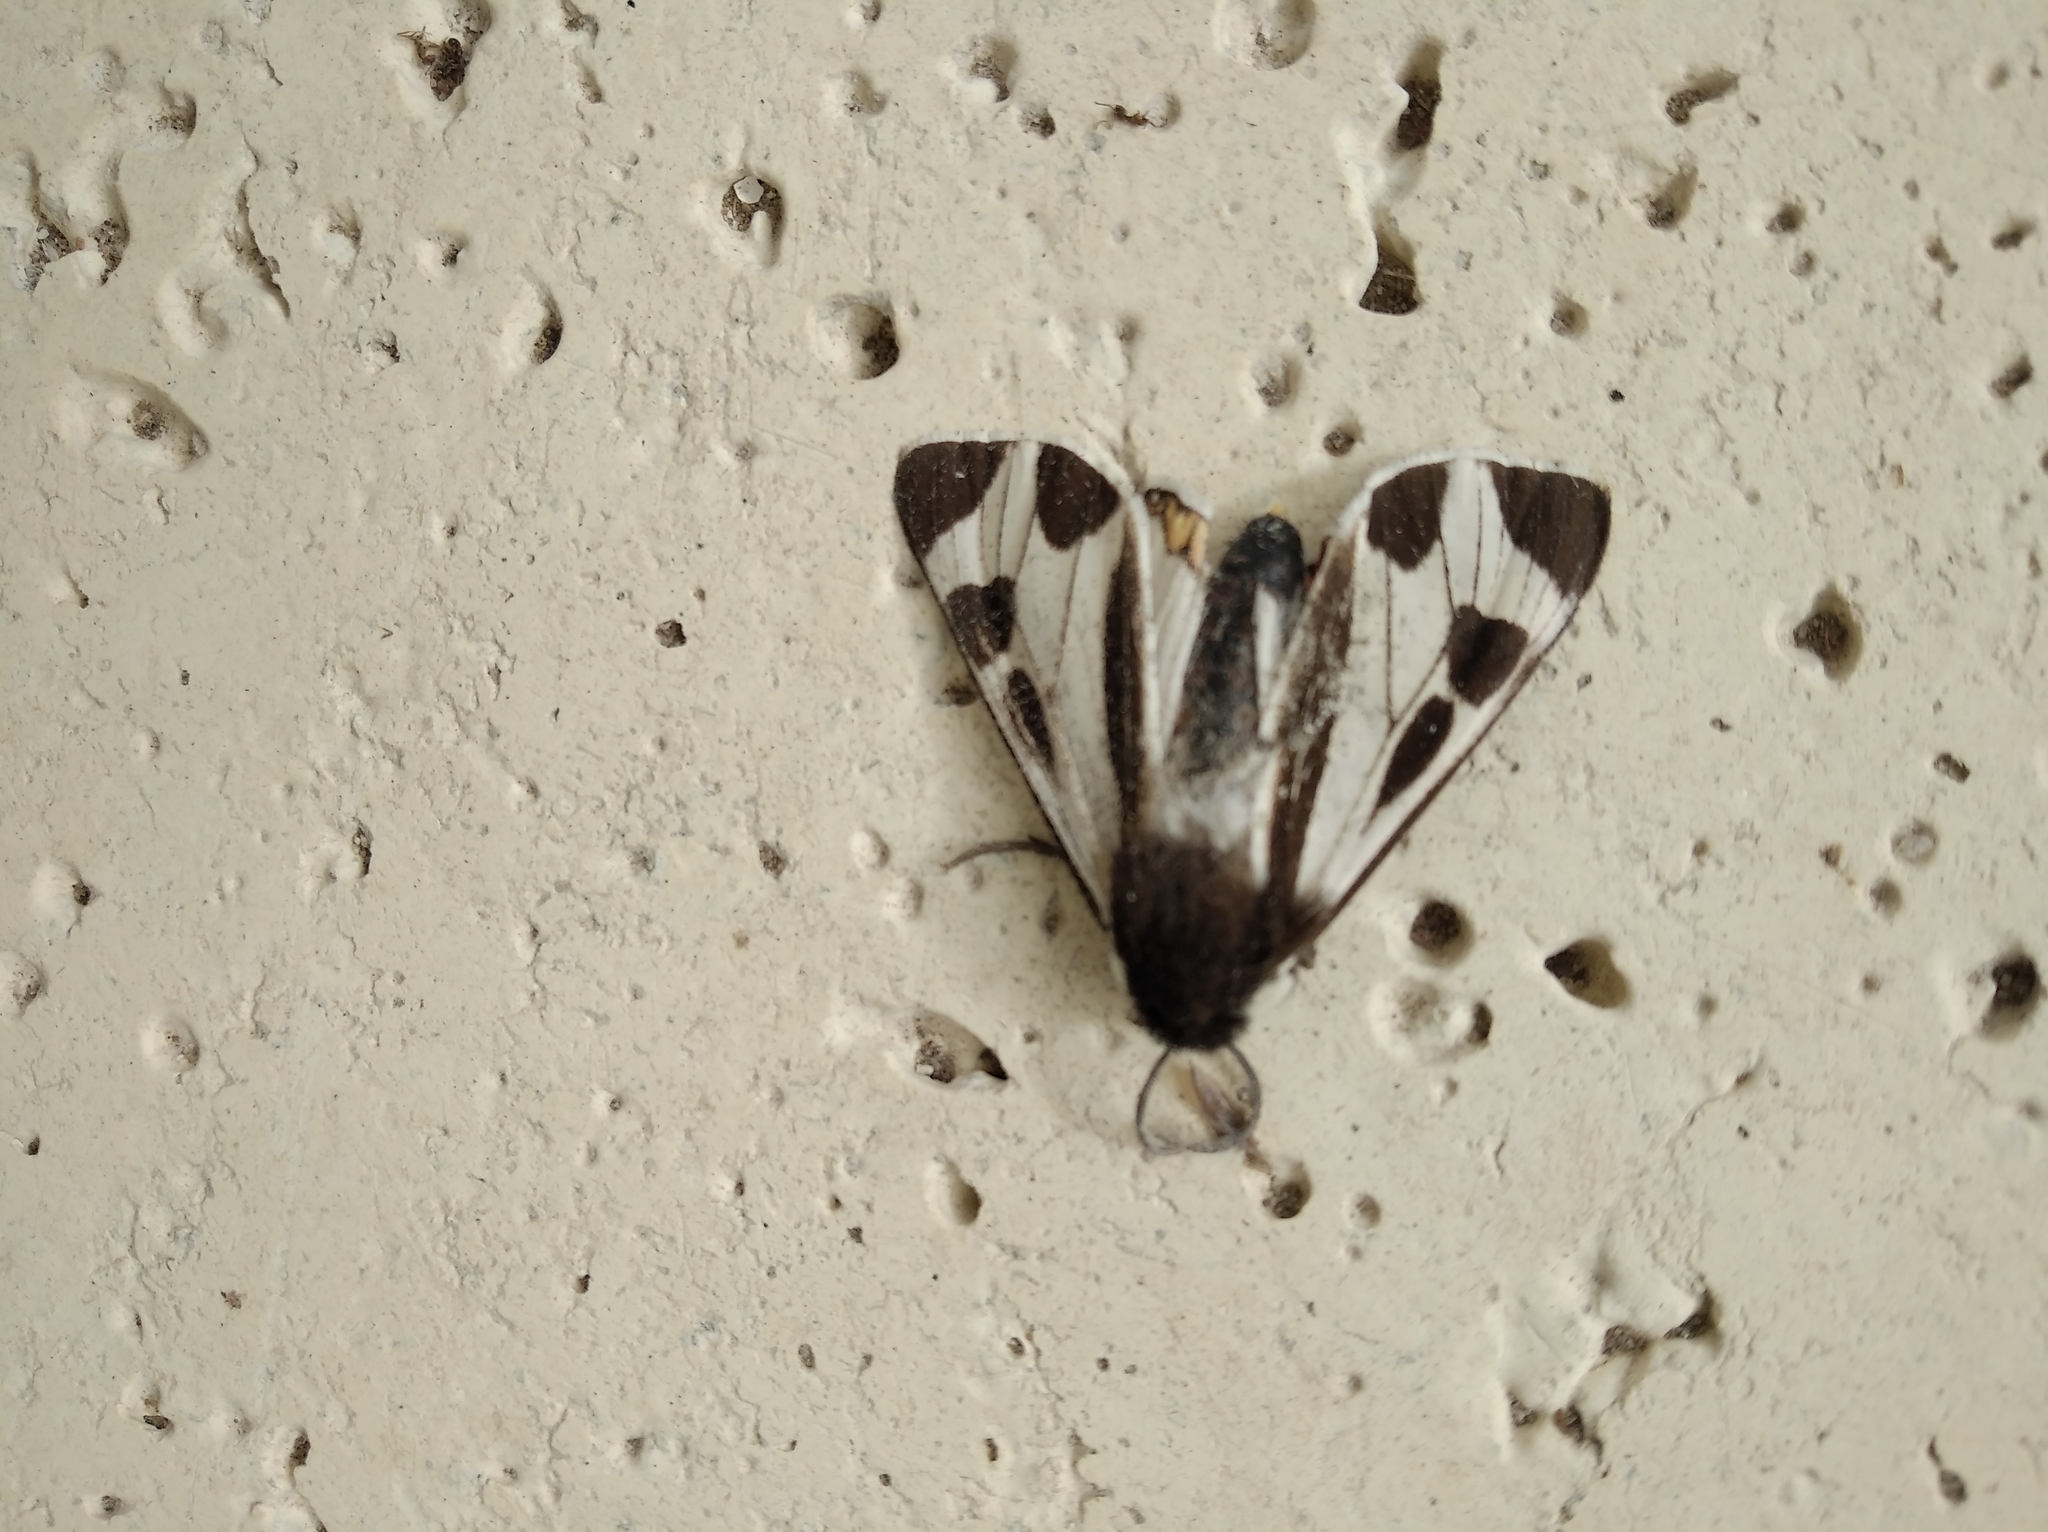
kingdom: Animalia
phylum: Arthropoda
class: Insecta
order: Lepidoptera
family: Erebidae
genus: Dysschema
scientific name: Dysschema centenaria
